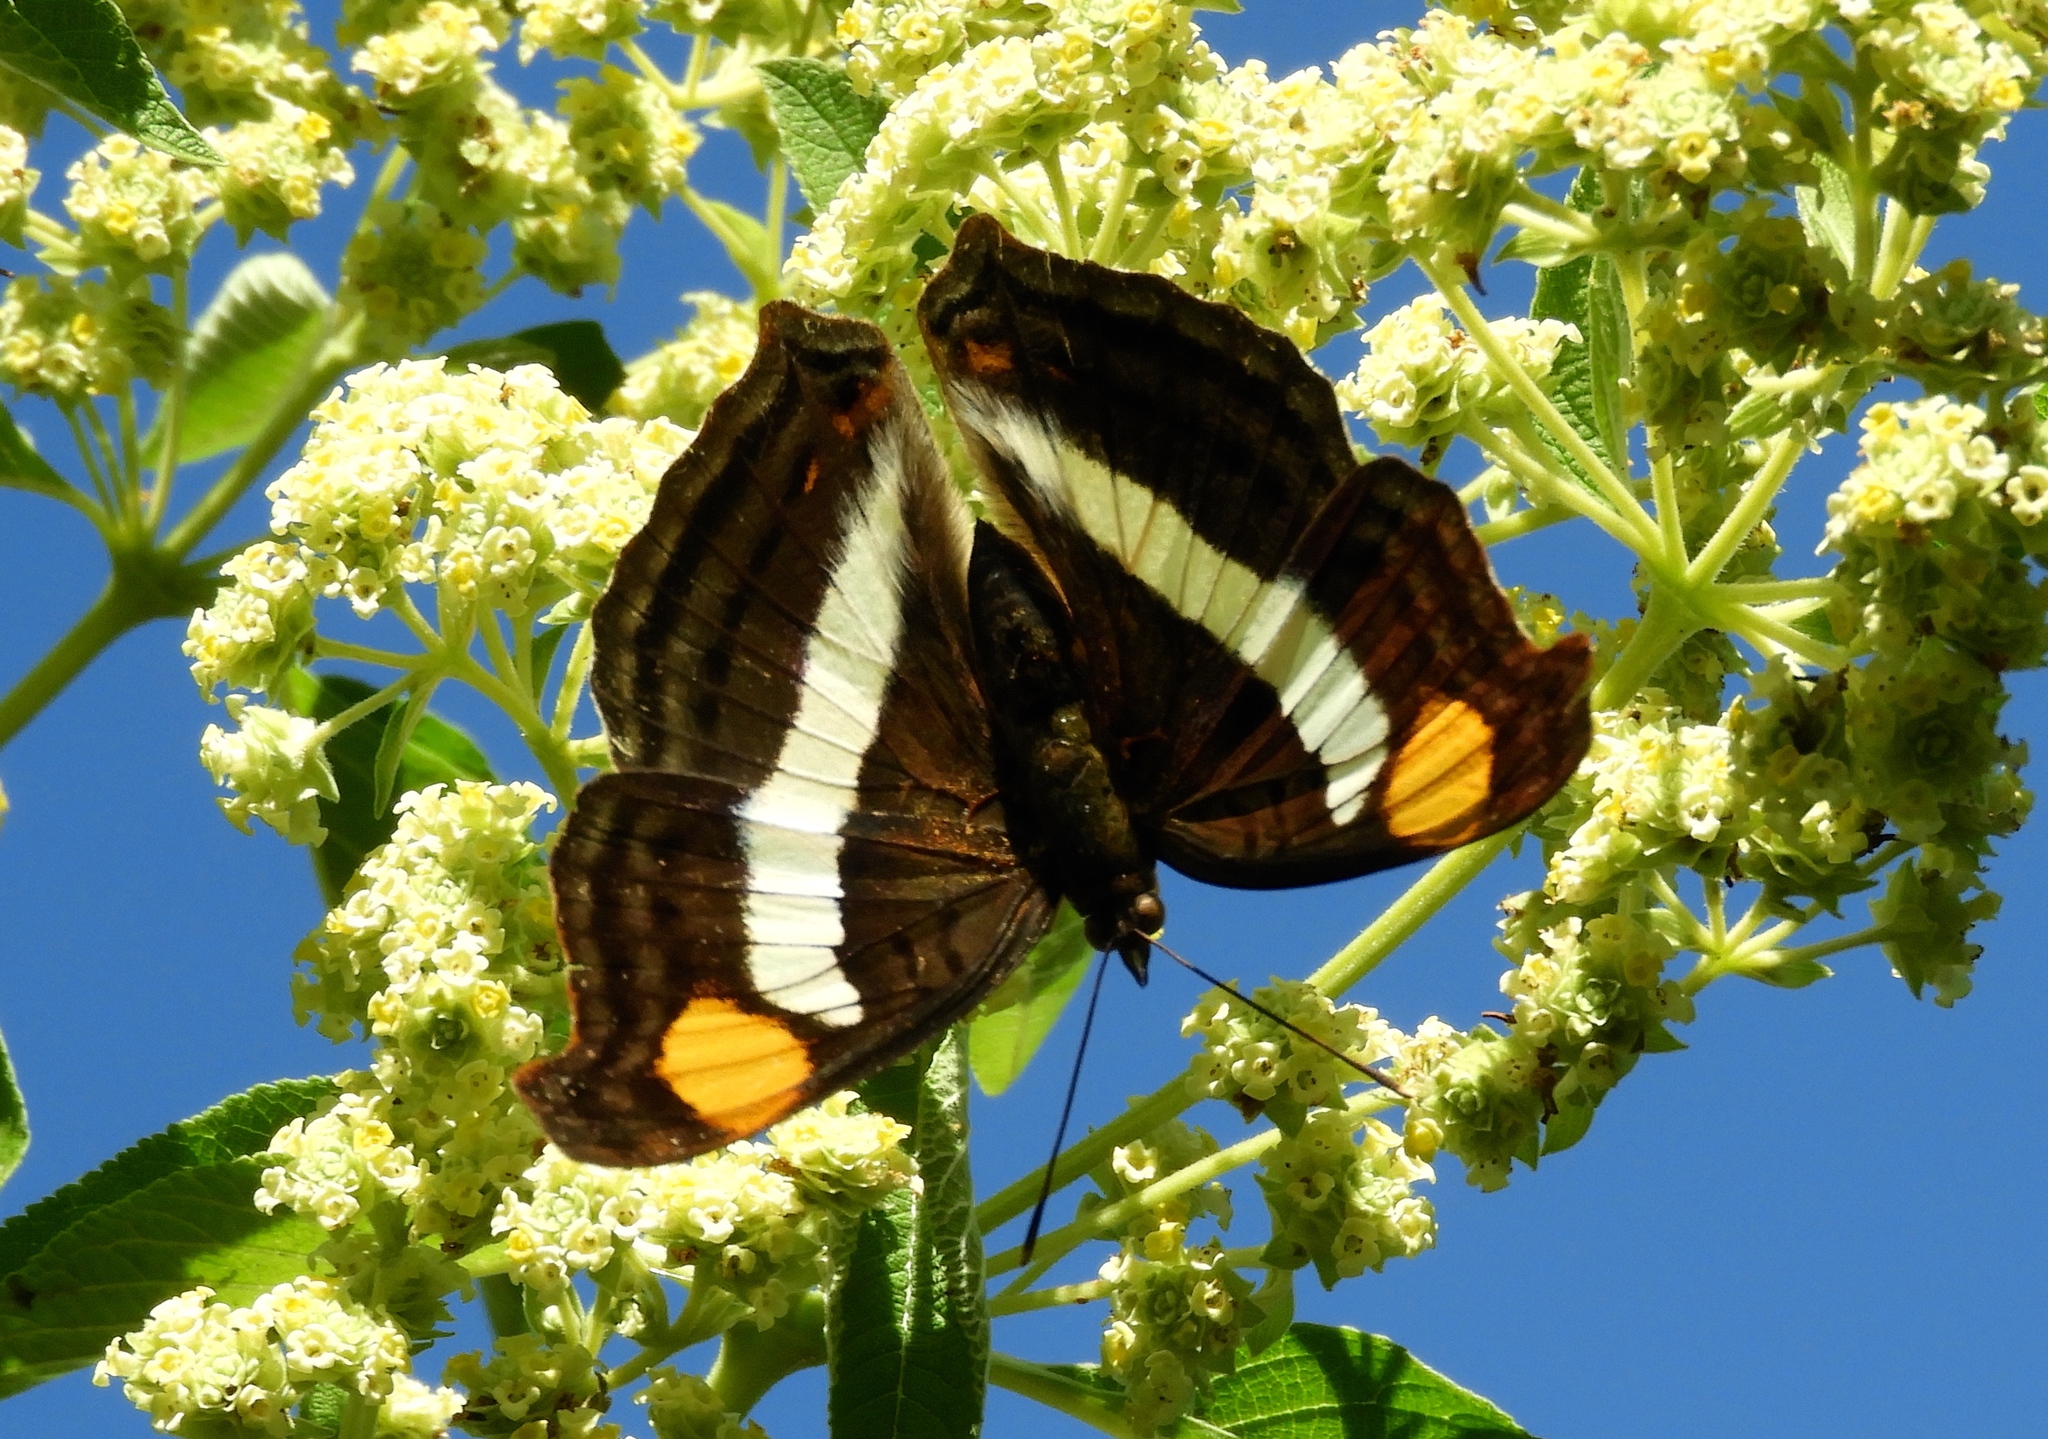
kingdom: Animalia
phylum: Arthropoda
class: Insecta
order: Lepidoptera
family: Nymphalidae
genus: Doxocopa
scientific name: Doxocopa laure
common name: Silver emperor
